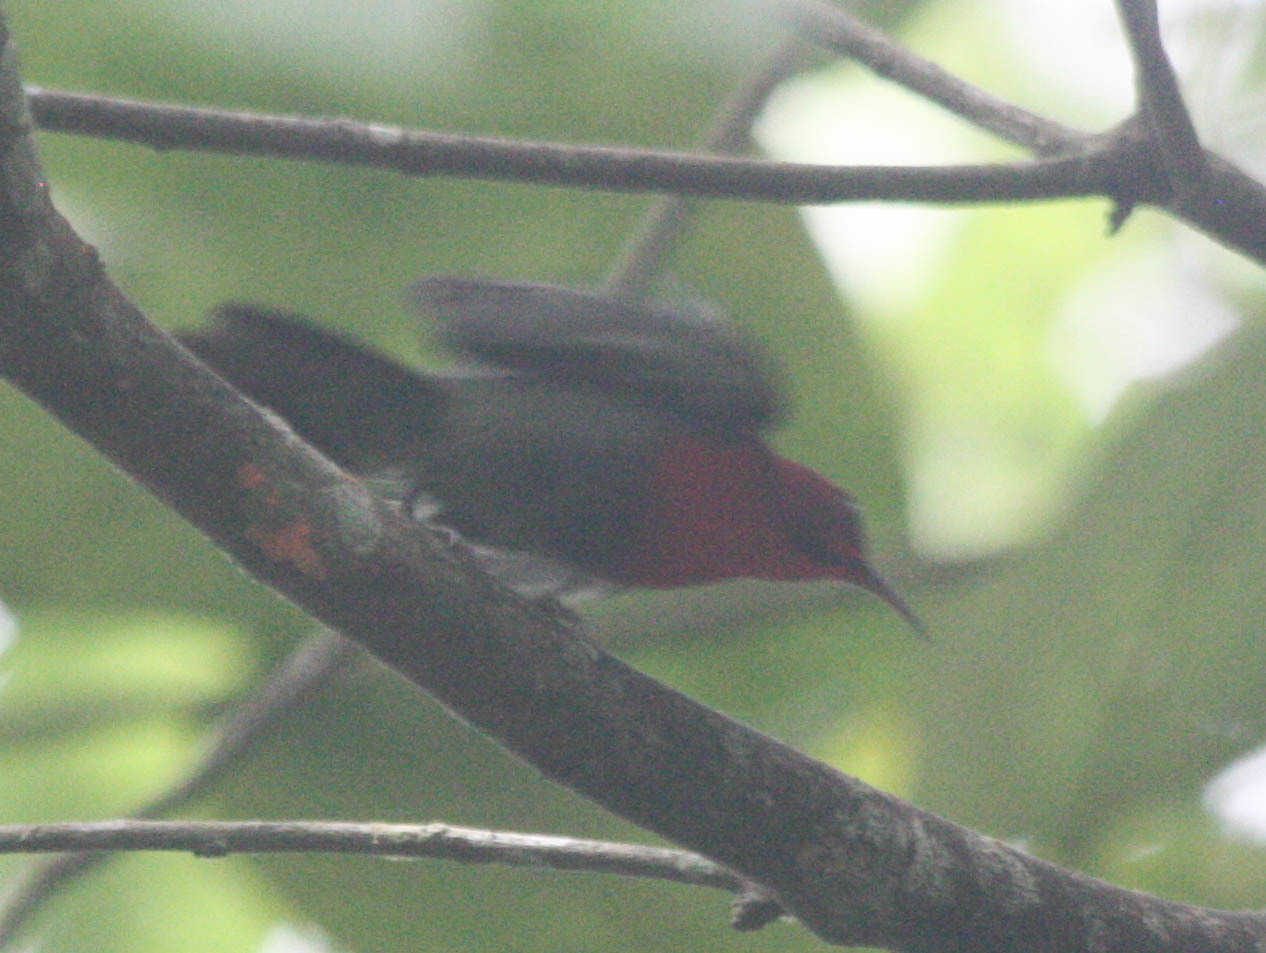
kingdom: Animalia
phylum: Chordata
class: Aves
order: Passeriformes
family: Nectariniidae
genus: Aethopyga
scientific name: Aethopyga siparaja
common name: Crimson sunbird
